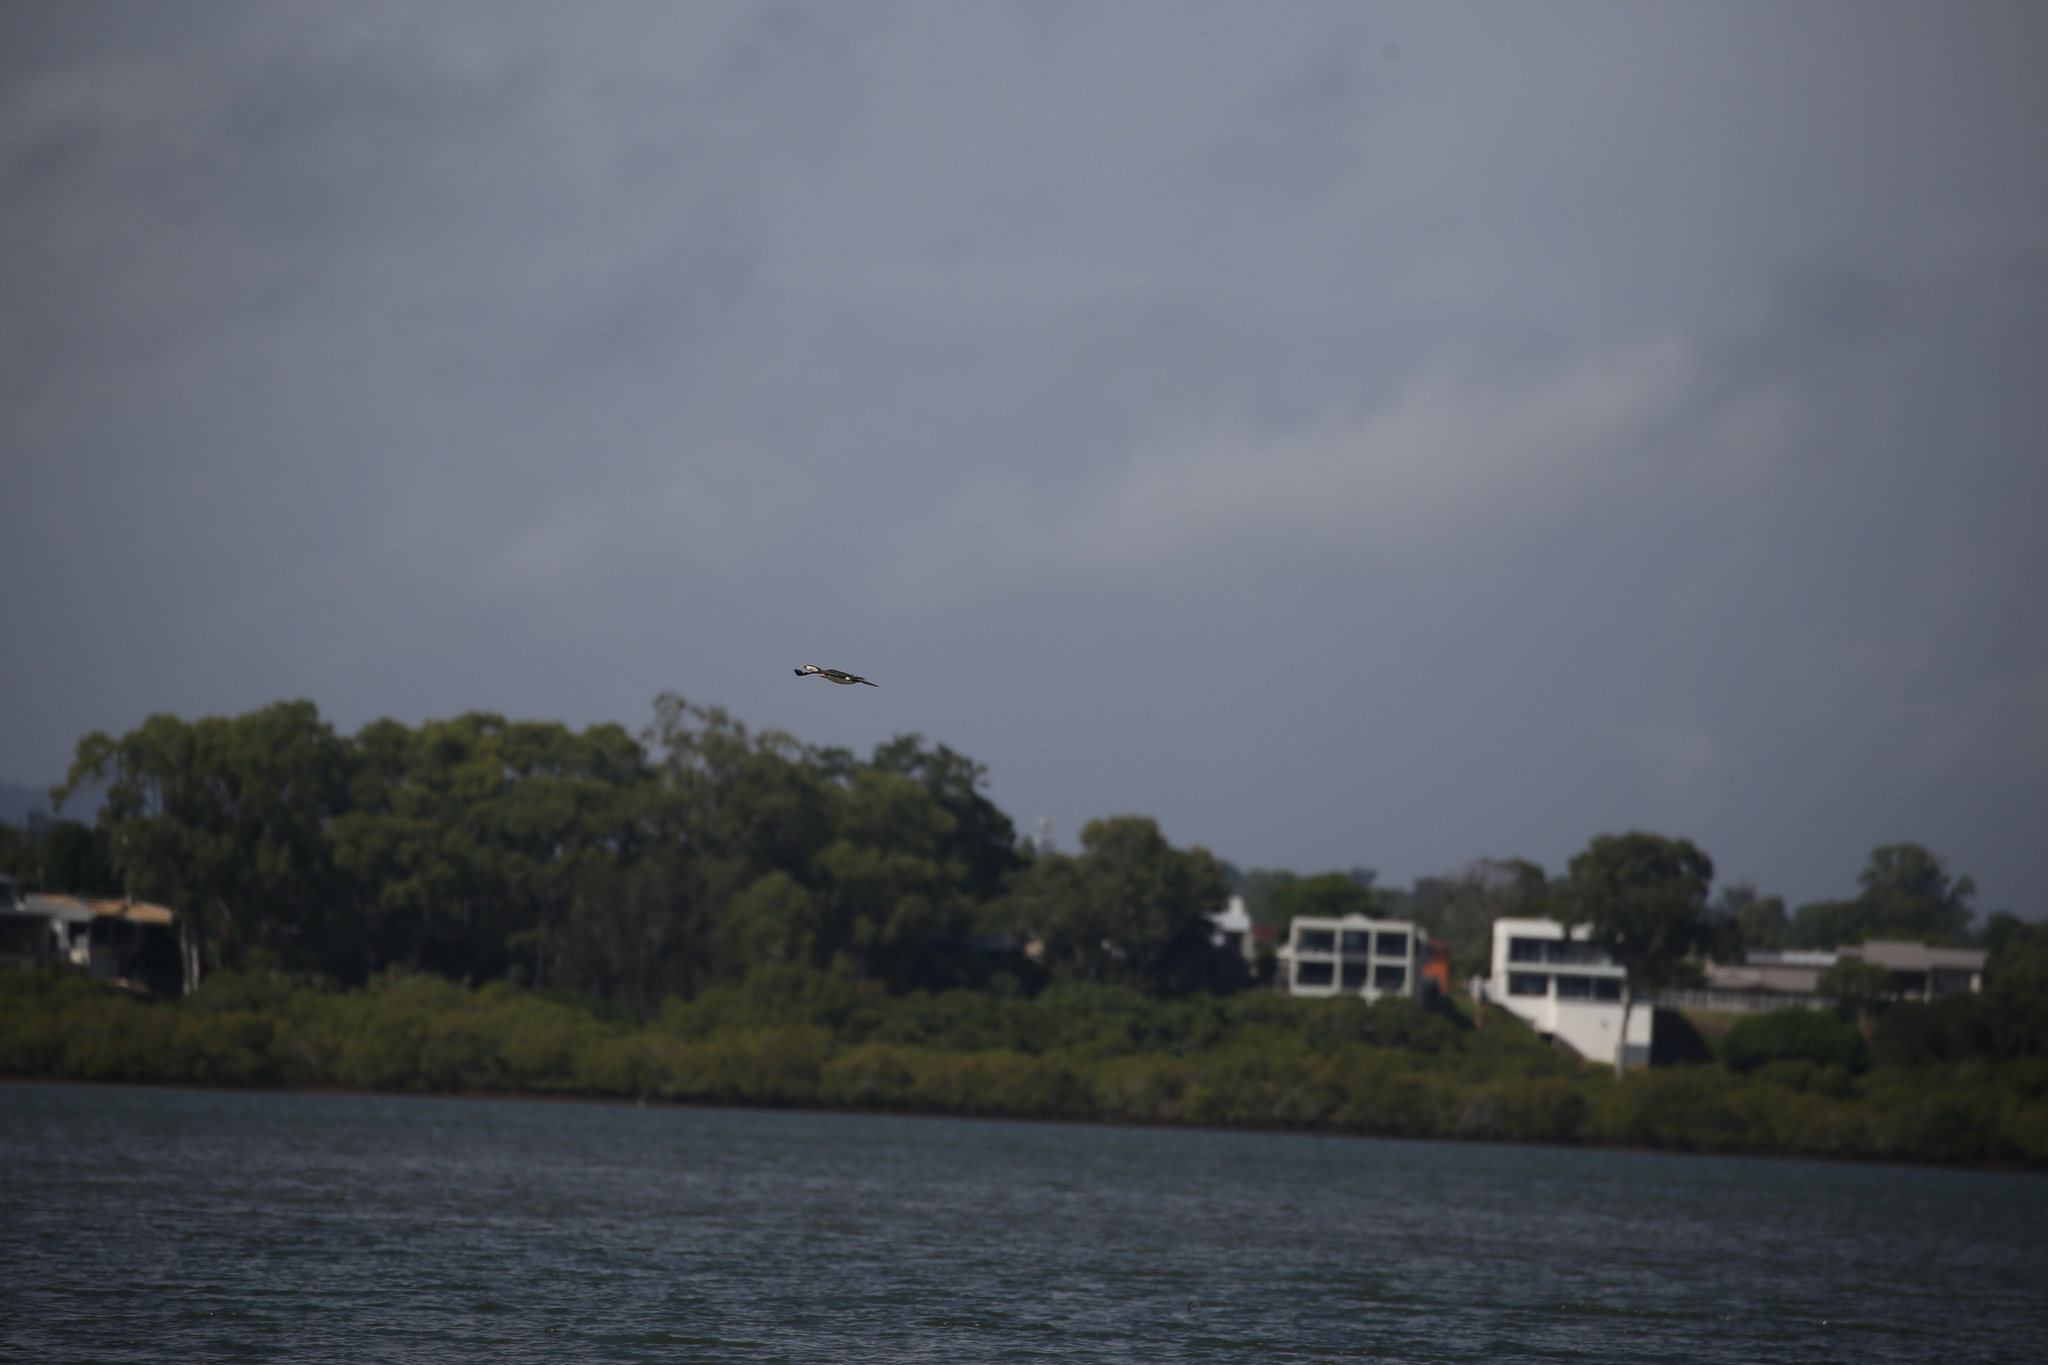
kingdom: Animalia
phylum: Chordata
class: Aves
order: Suliformes
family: Phalacrocoracidae
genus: Microcarbo
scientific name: Microcarbo melanoleucos
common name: Little pied cormorant
